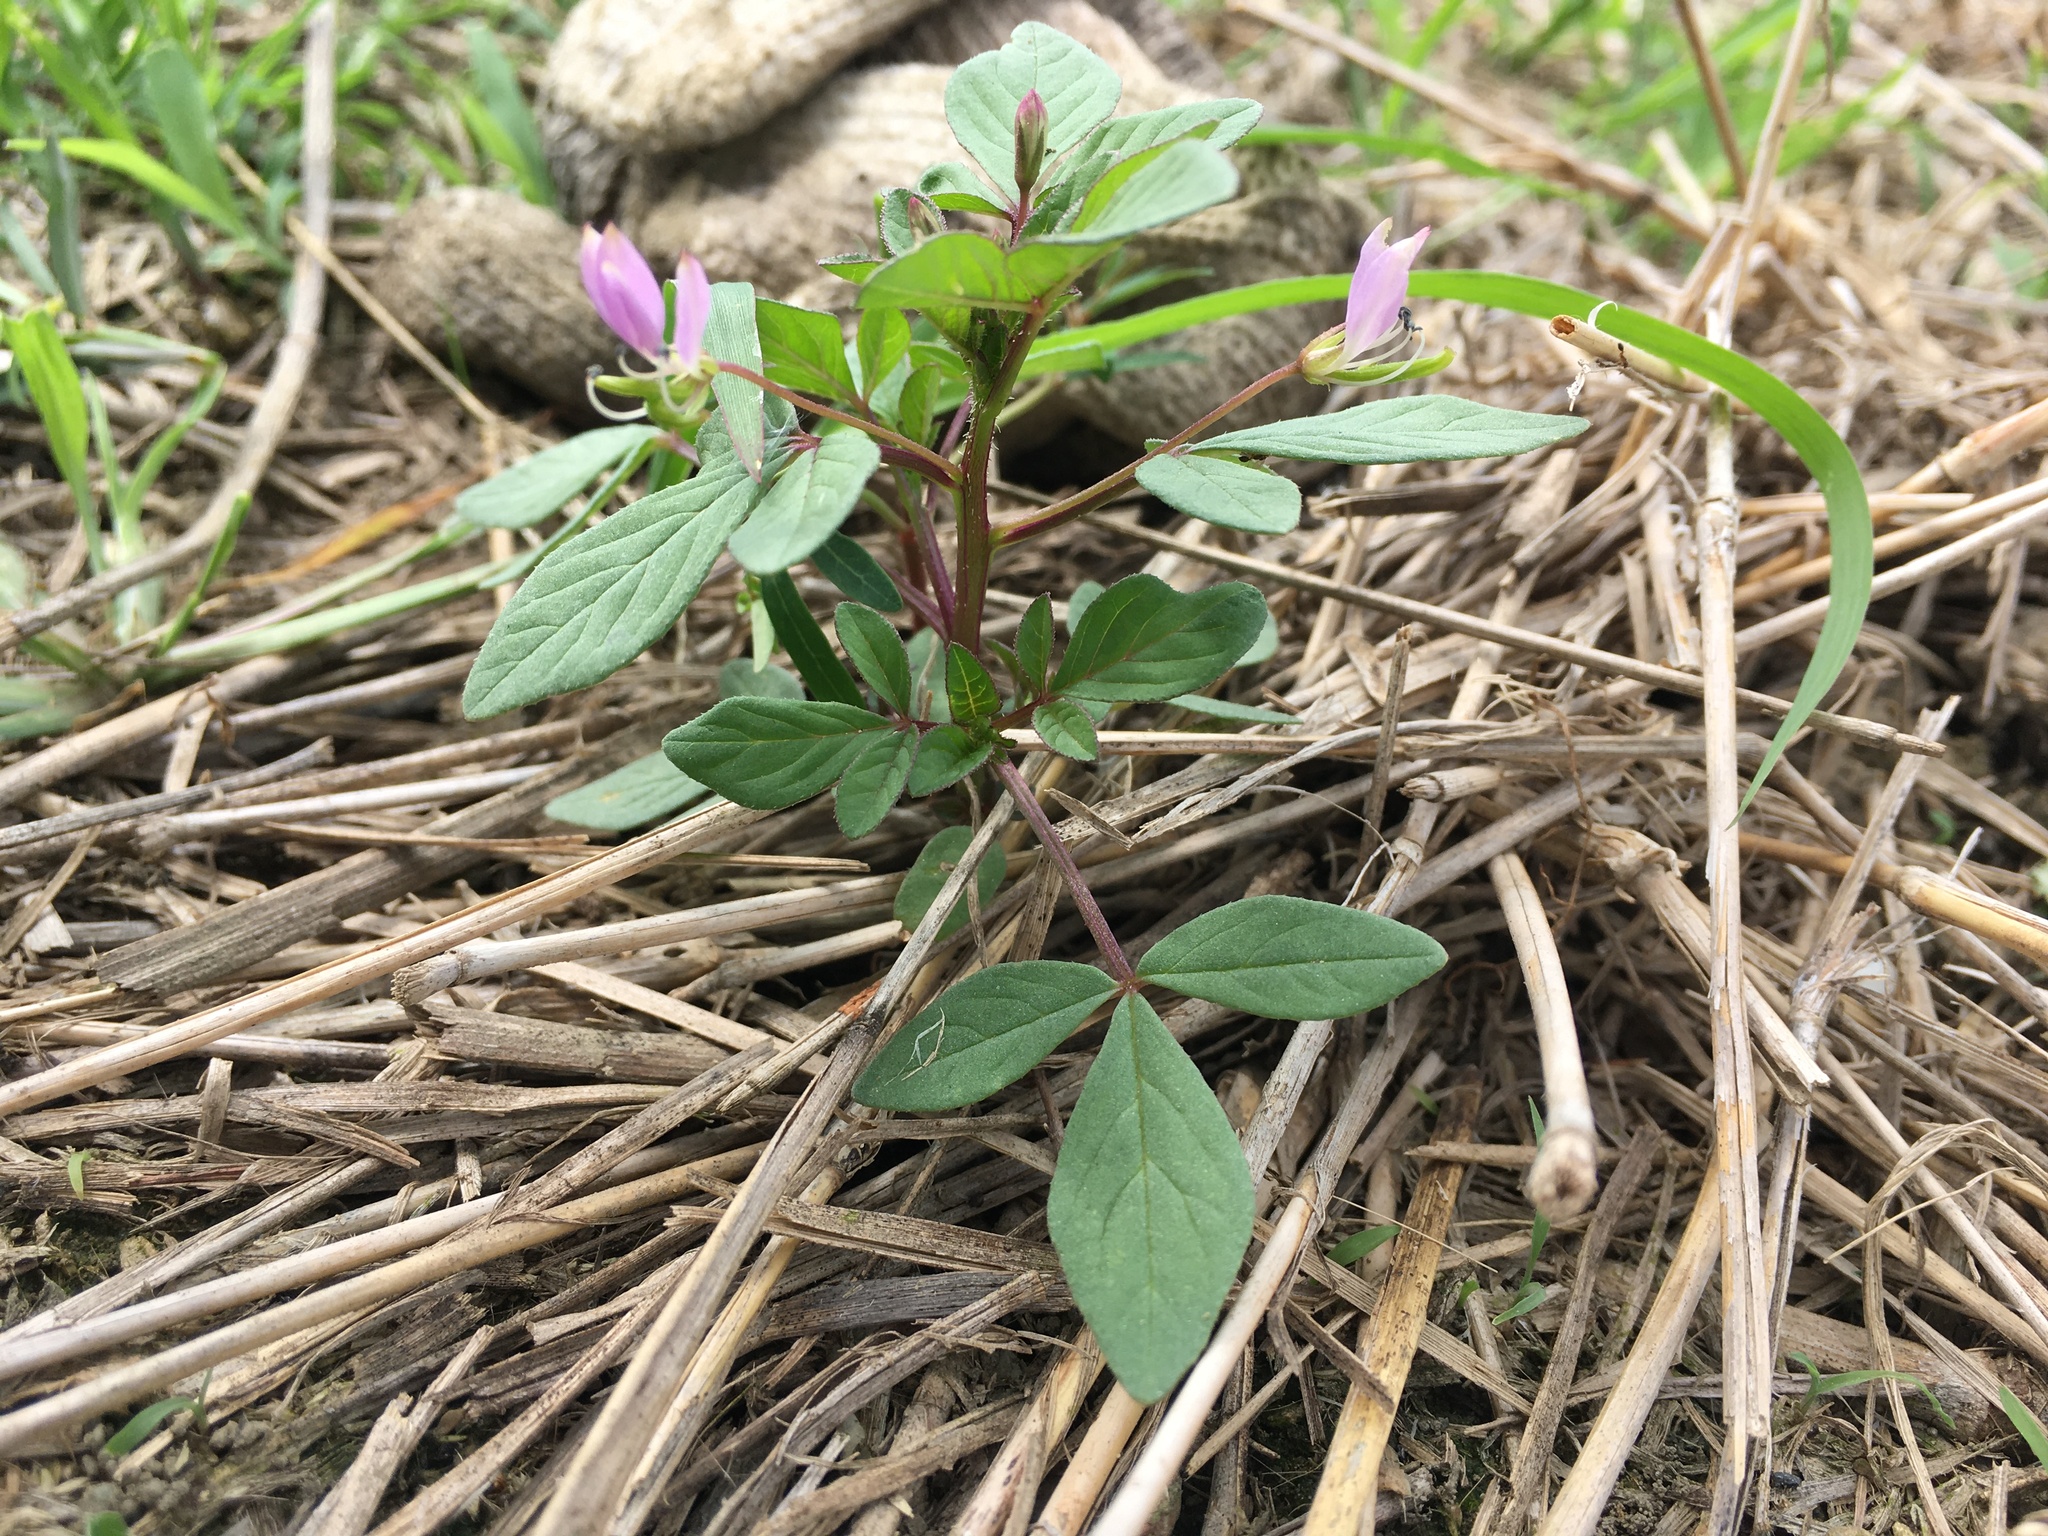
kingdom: Plantae
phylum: Tracheophyta
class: Magnoliopsida
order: Brassicales
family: Cleomaceae
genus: Sieruela
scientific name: Sieruela rutidosperma
